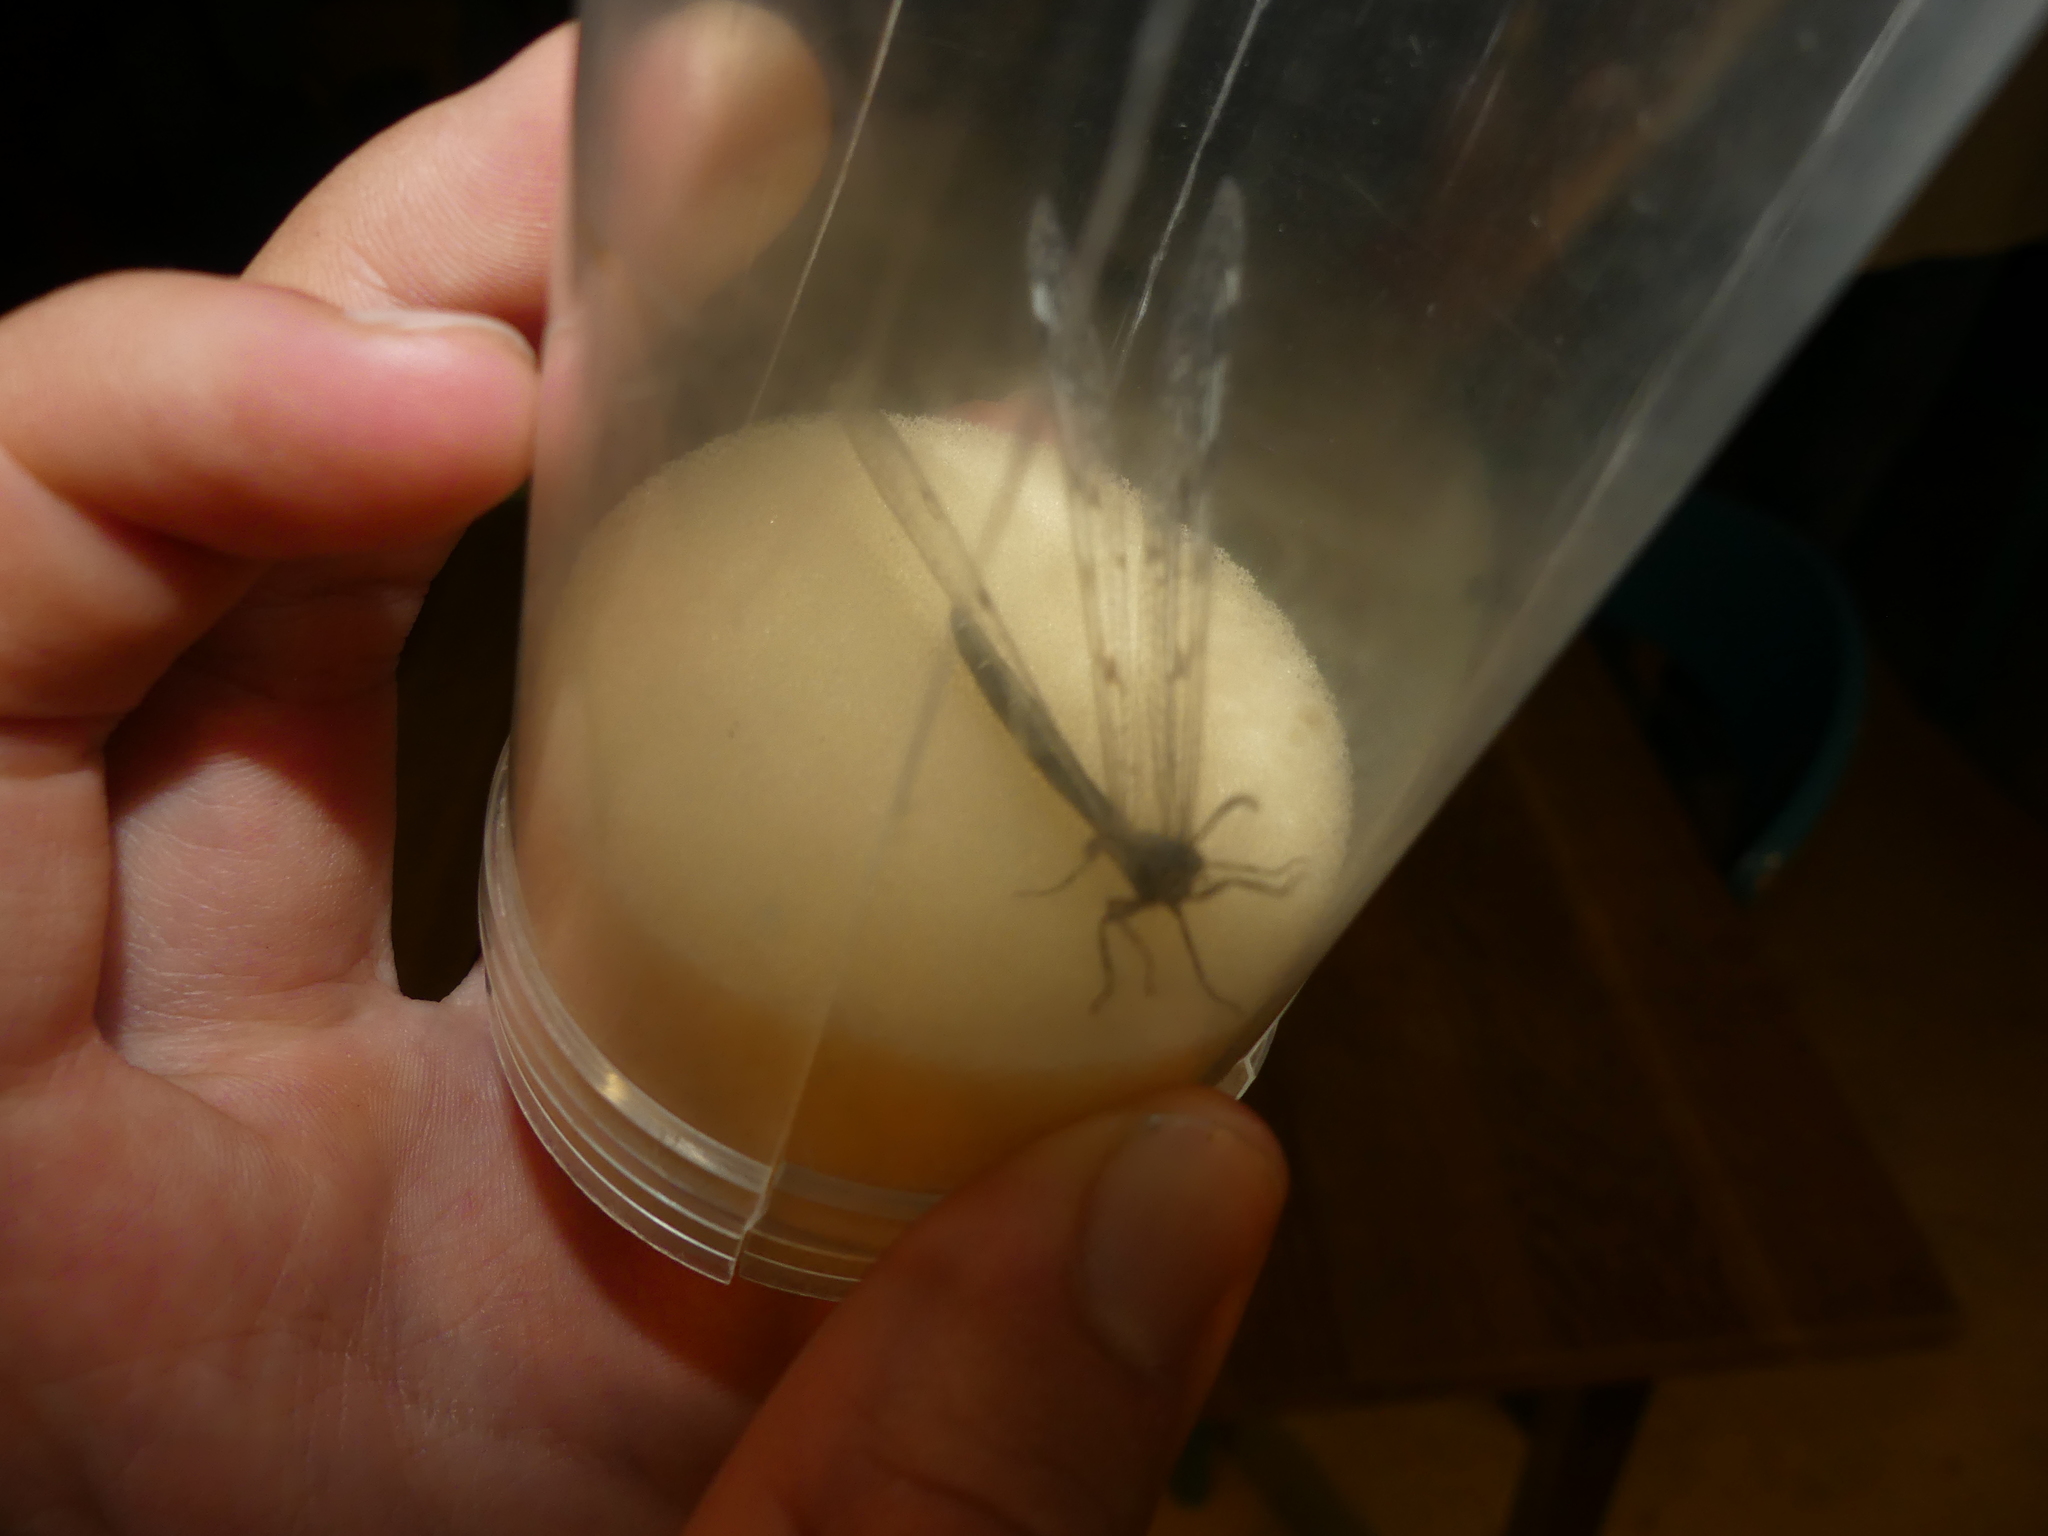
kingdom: Animalia
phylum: Arthropoda
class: Insecta
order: Neuroptera
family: Myrmeleontidae
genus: Euroleon
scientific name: Euroleon nostras
